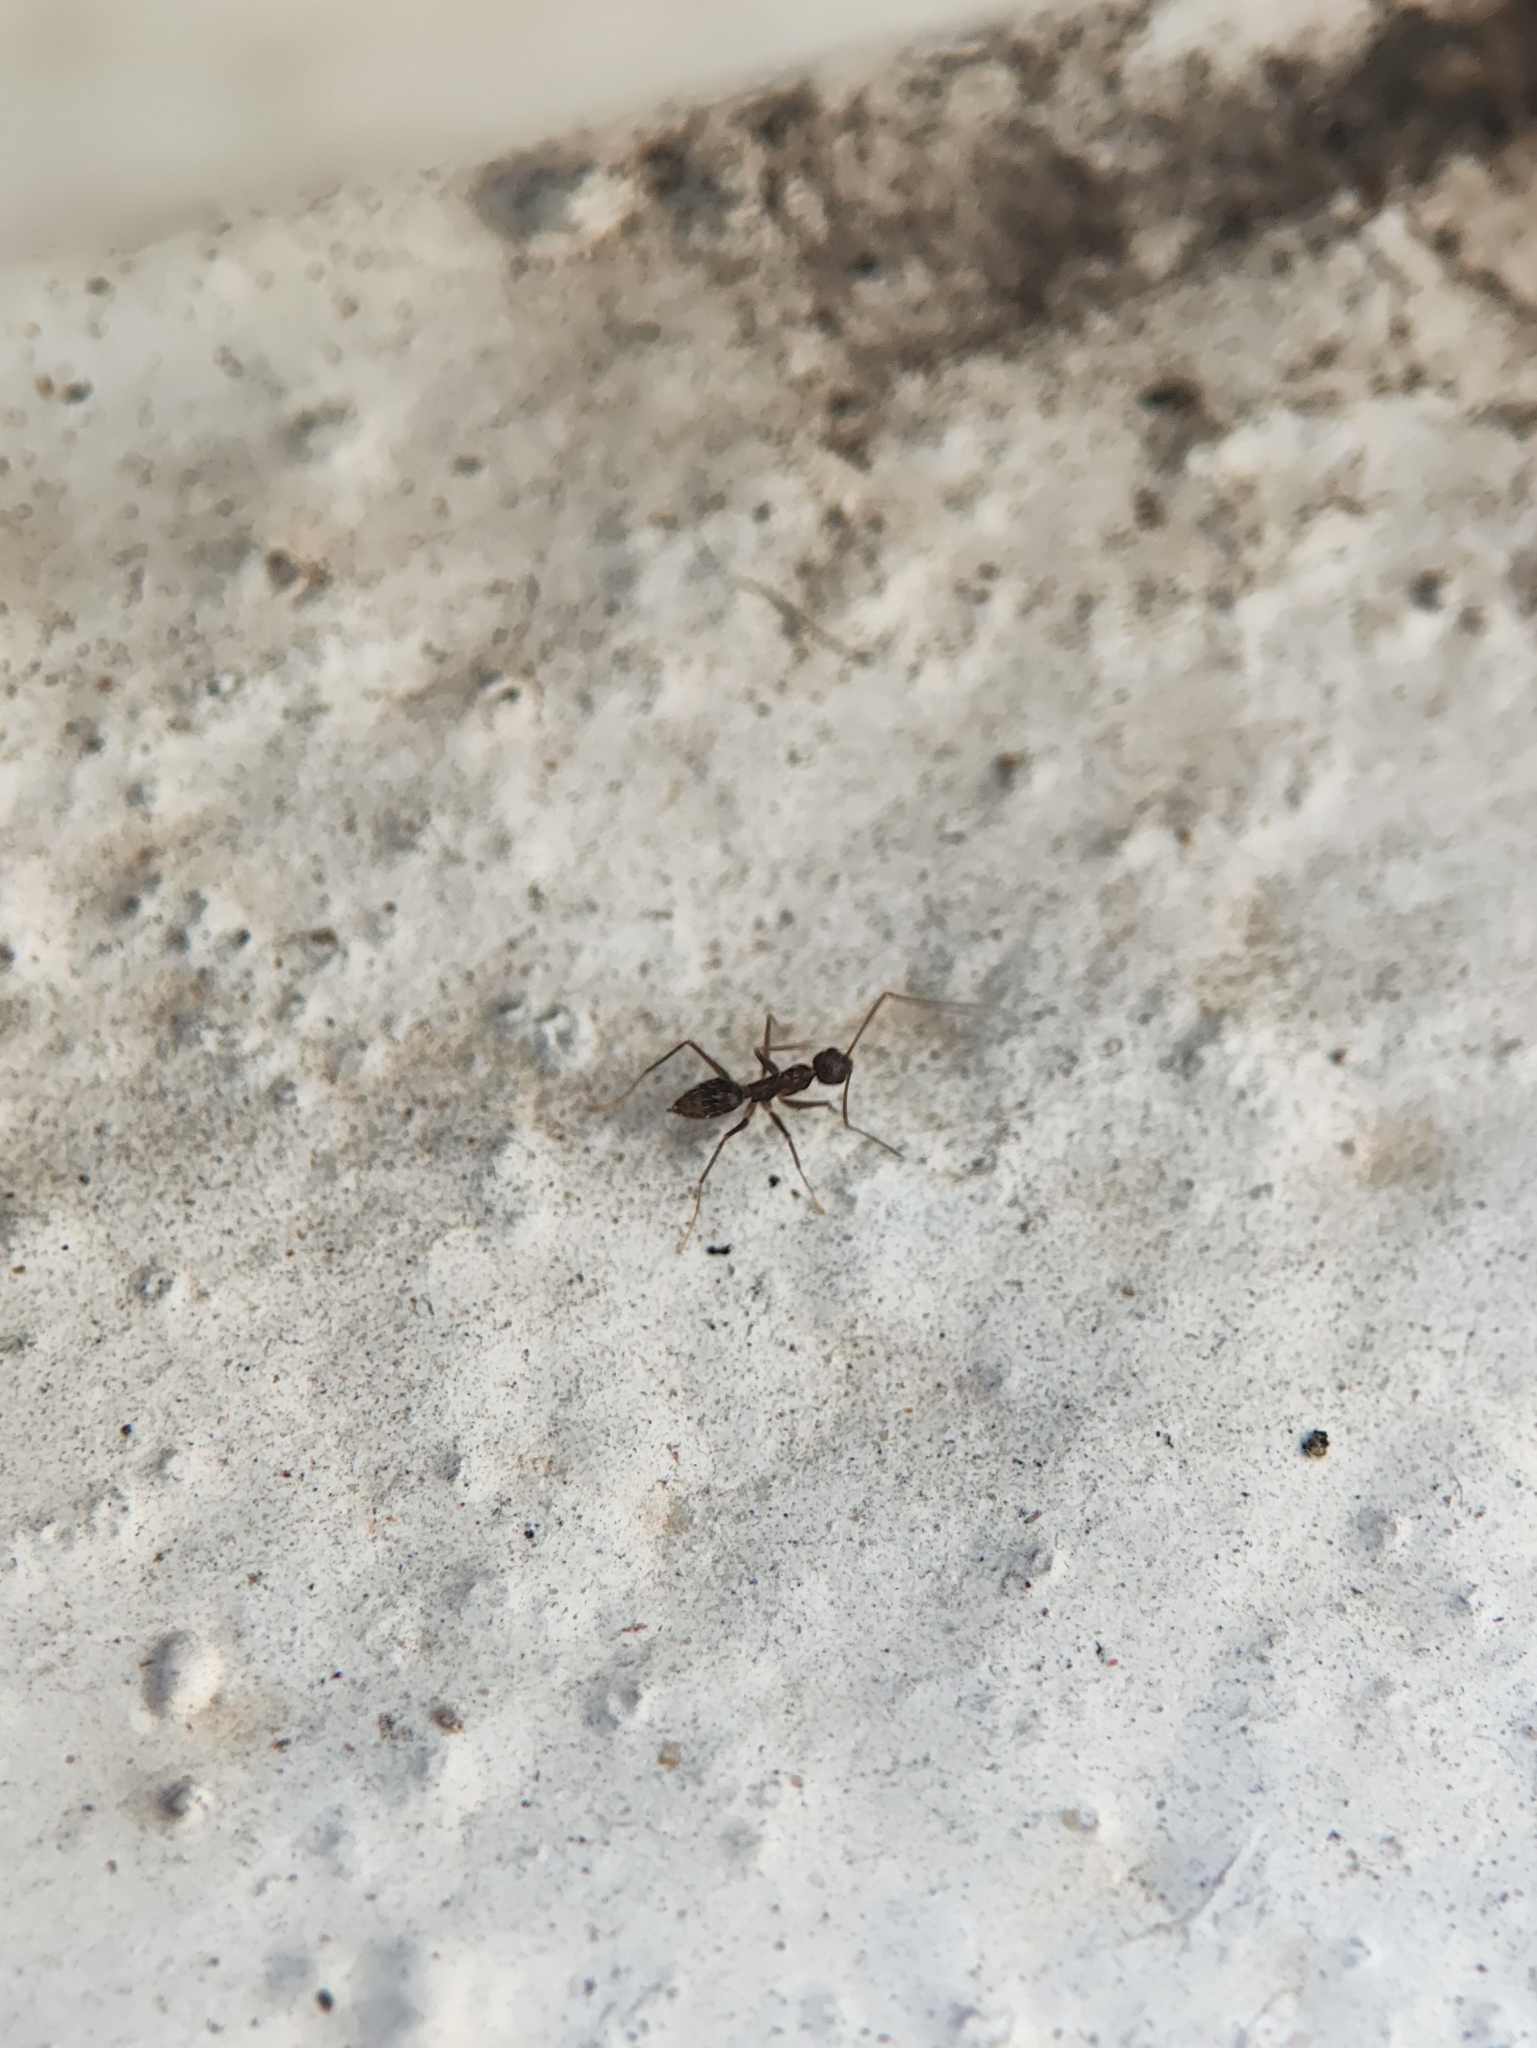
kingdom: Animalia
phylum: Arthropoda
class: Insecta
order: Hymenoptera
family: Formicidae
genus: Paratrechina
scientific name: Paratrechina longicornis
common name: Longhorned crazy ant
